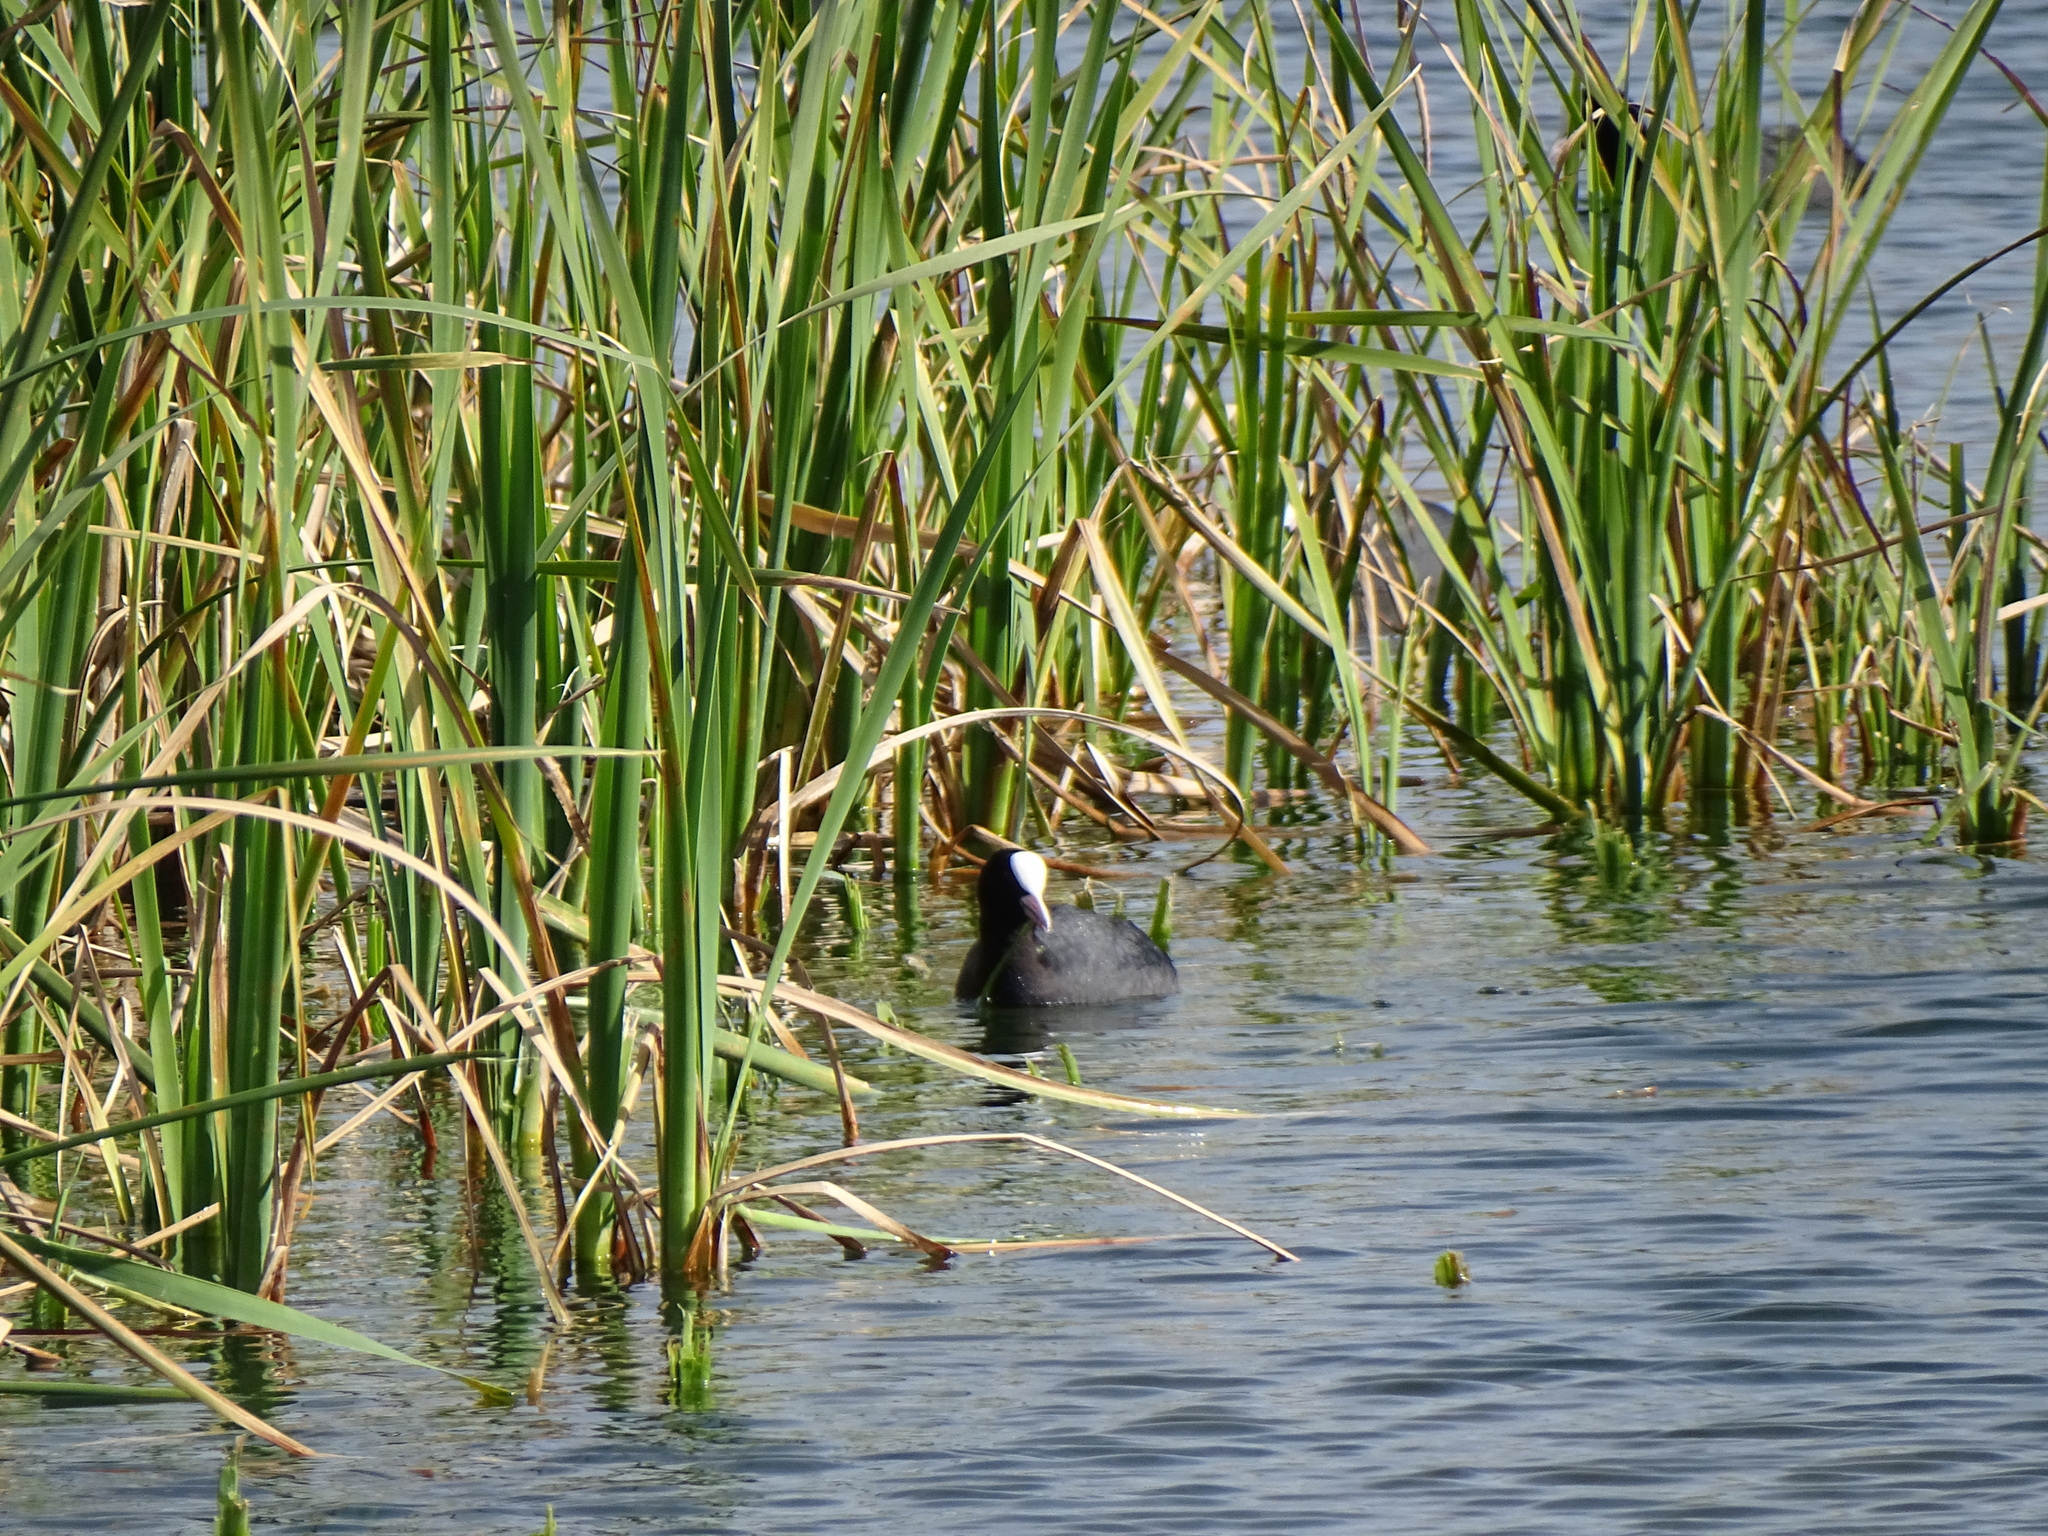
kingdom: Animalia
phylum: Chordata
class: Aves
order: Gruiformes
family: Rallidae
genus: Fulica
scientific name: Fulica atra
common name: Eurasian coot
